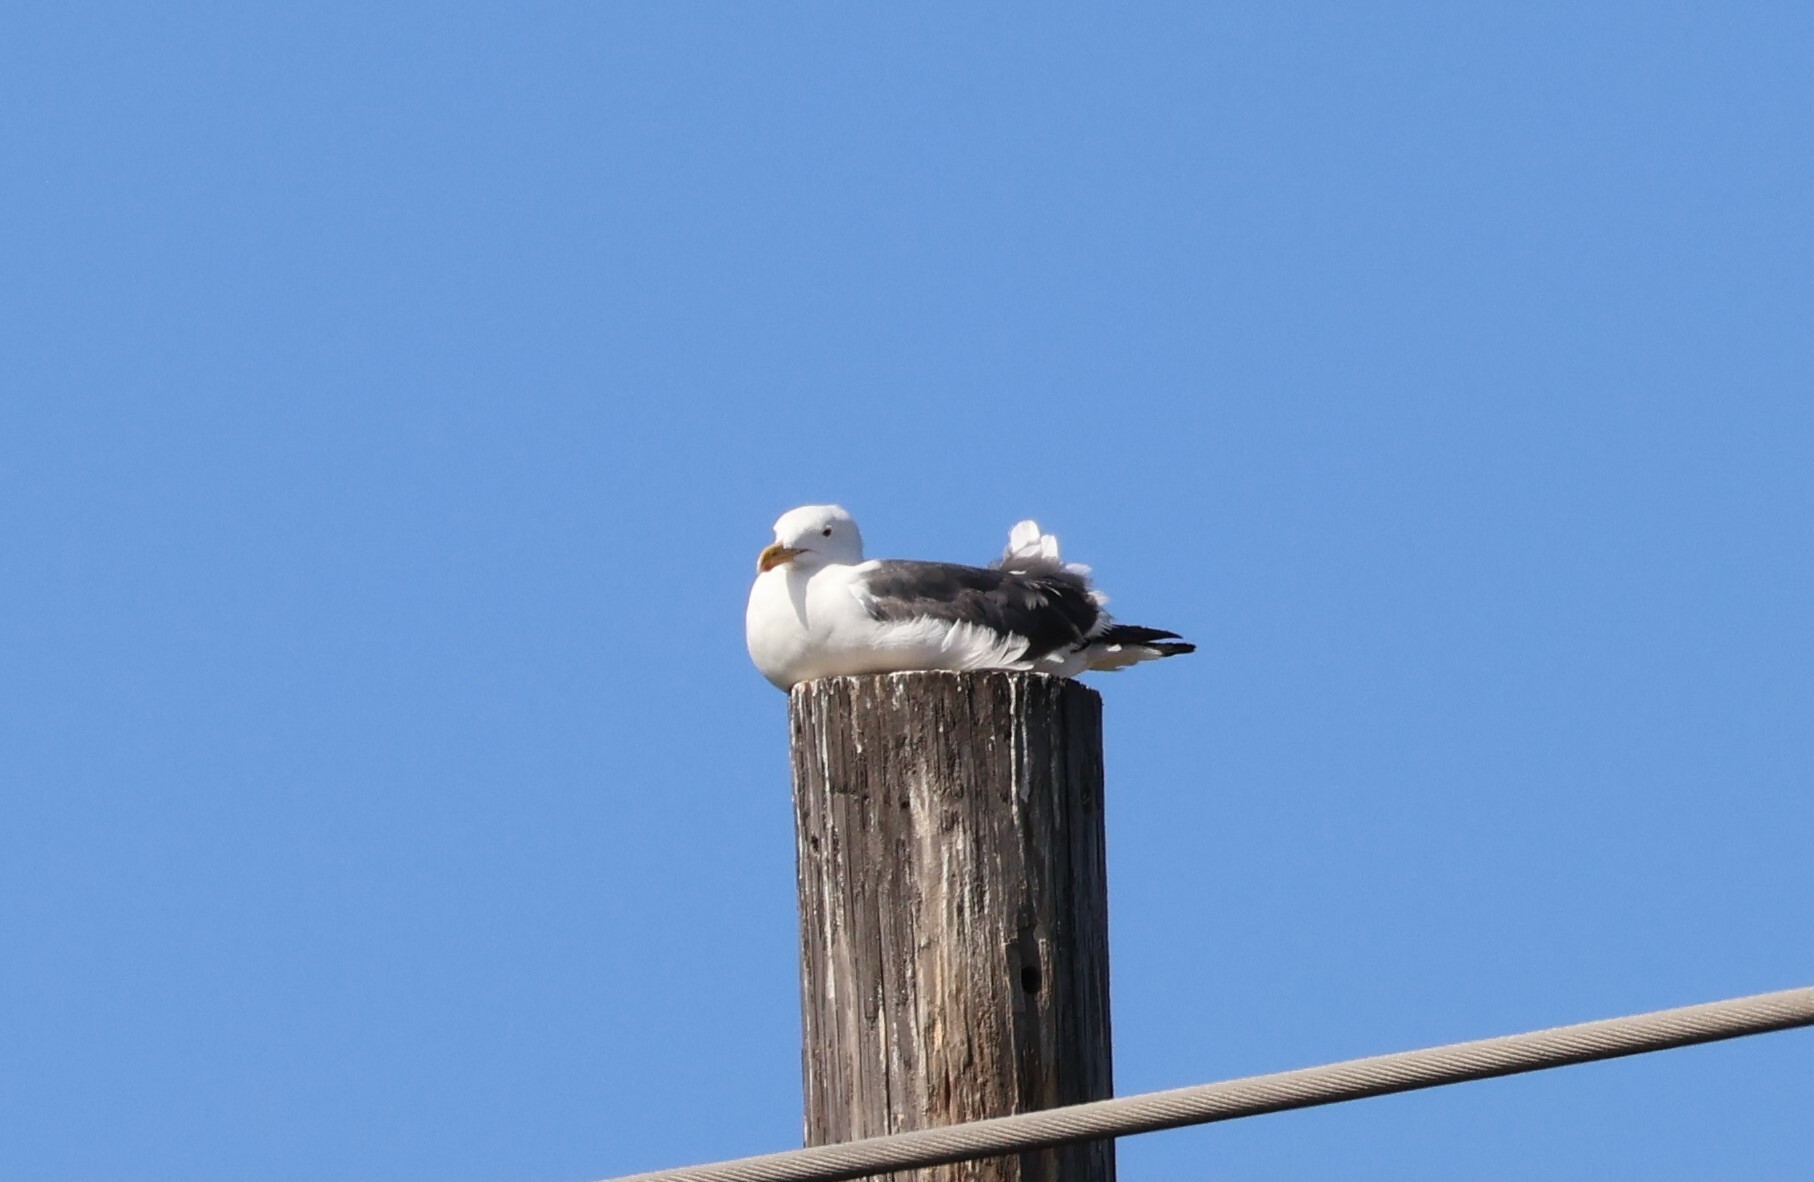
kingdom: Animalia
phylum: Chordata
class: Aves
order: Charadriiformes
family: Laridae
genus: Larus
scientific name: Larus occidentalis
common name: Western gull
